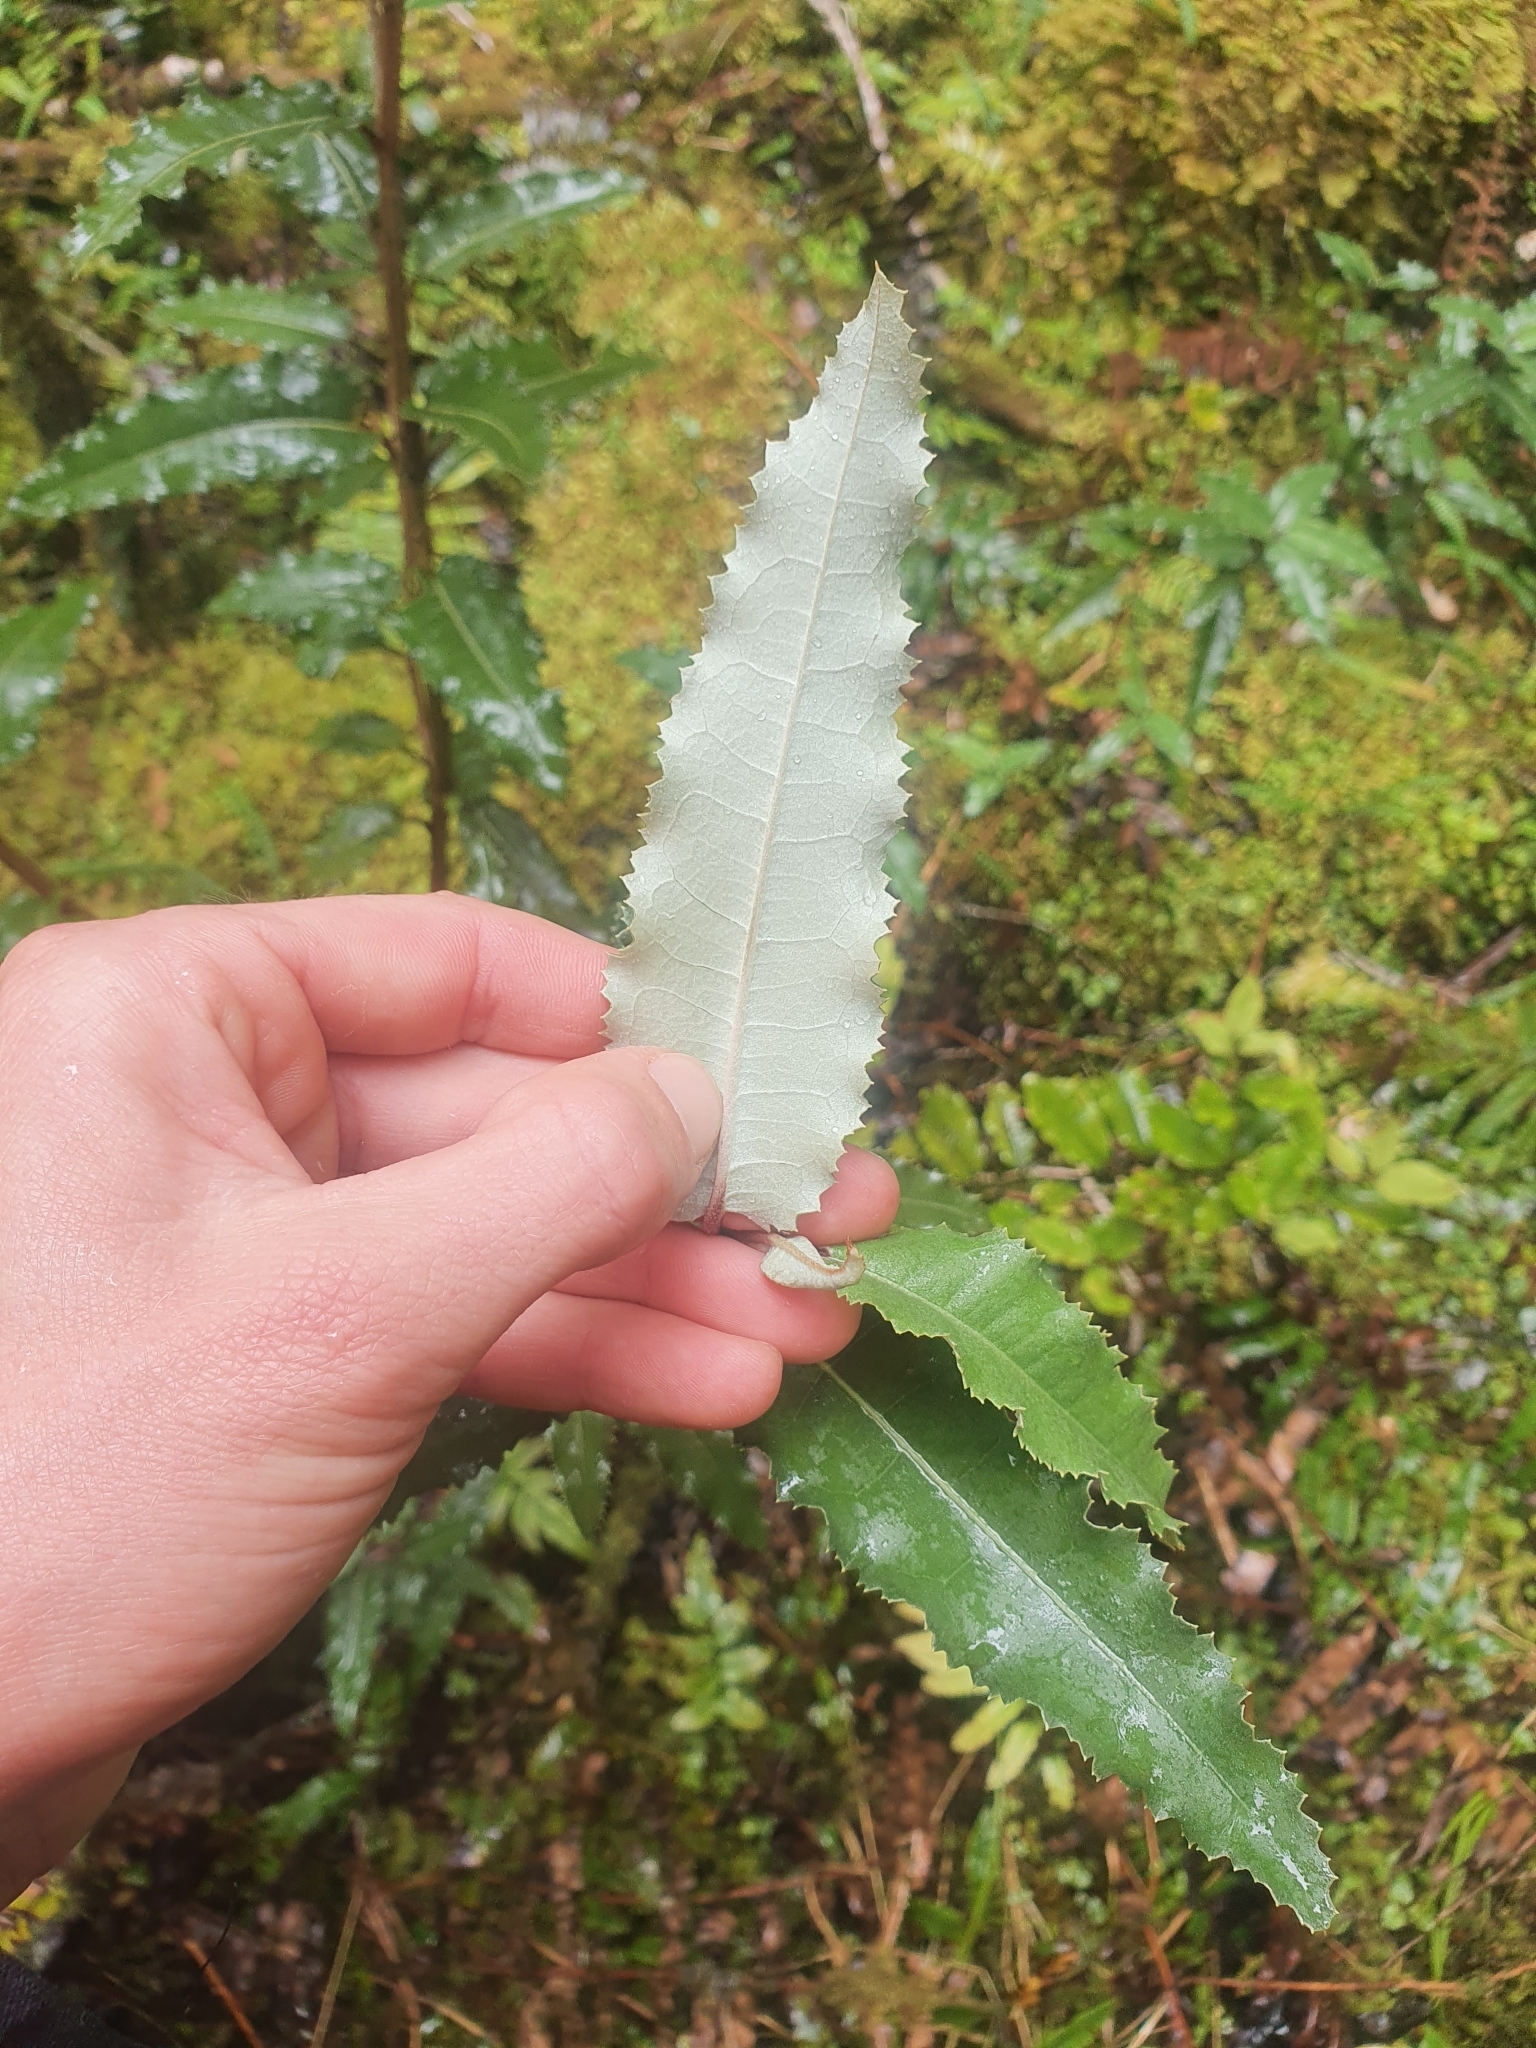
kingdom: Plantae
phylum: Tracheophyta
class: Magnoliopsida
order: Asterales
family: Asteraceae
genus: Olearia
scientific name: Olearia ilicifolia
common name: Maori-holly
